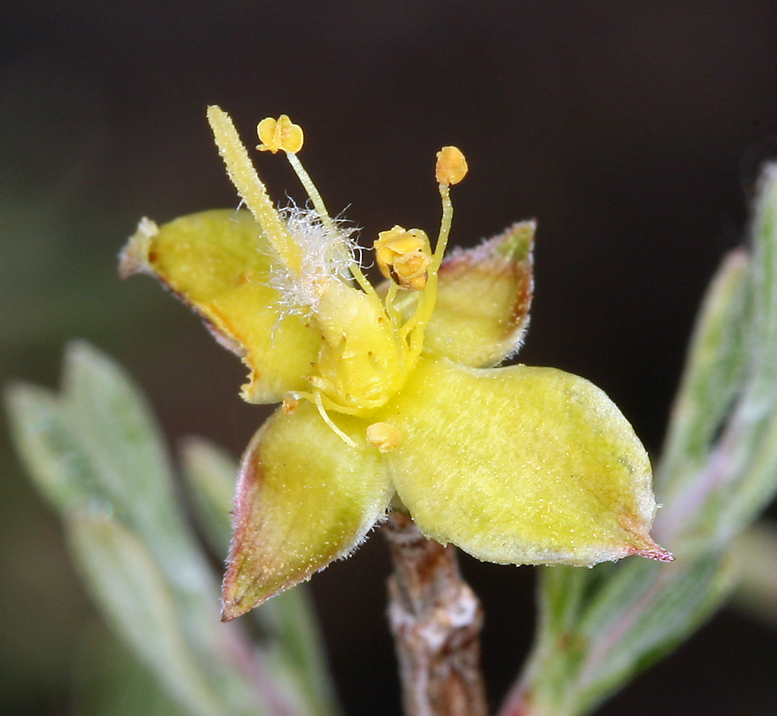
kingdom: Plantae
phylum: Tracheophyta
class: Magnoliopsida
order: Rosales
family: Rosaceae
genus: Coleogyne
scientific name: Coleogyne ramosissima
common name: Blackbrush
